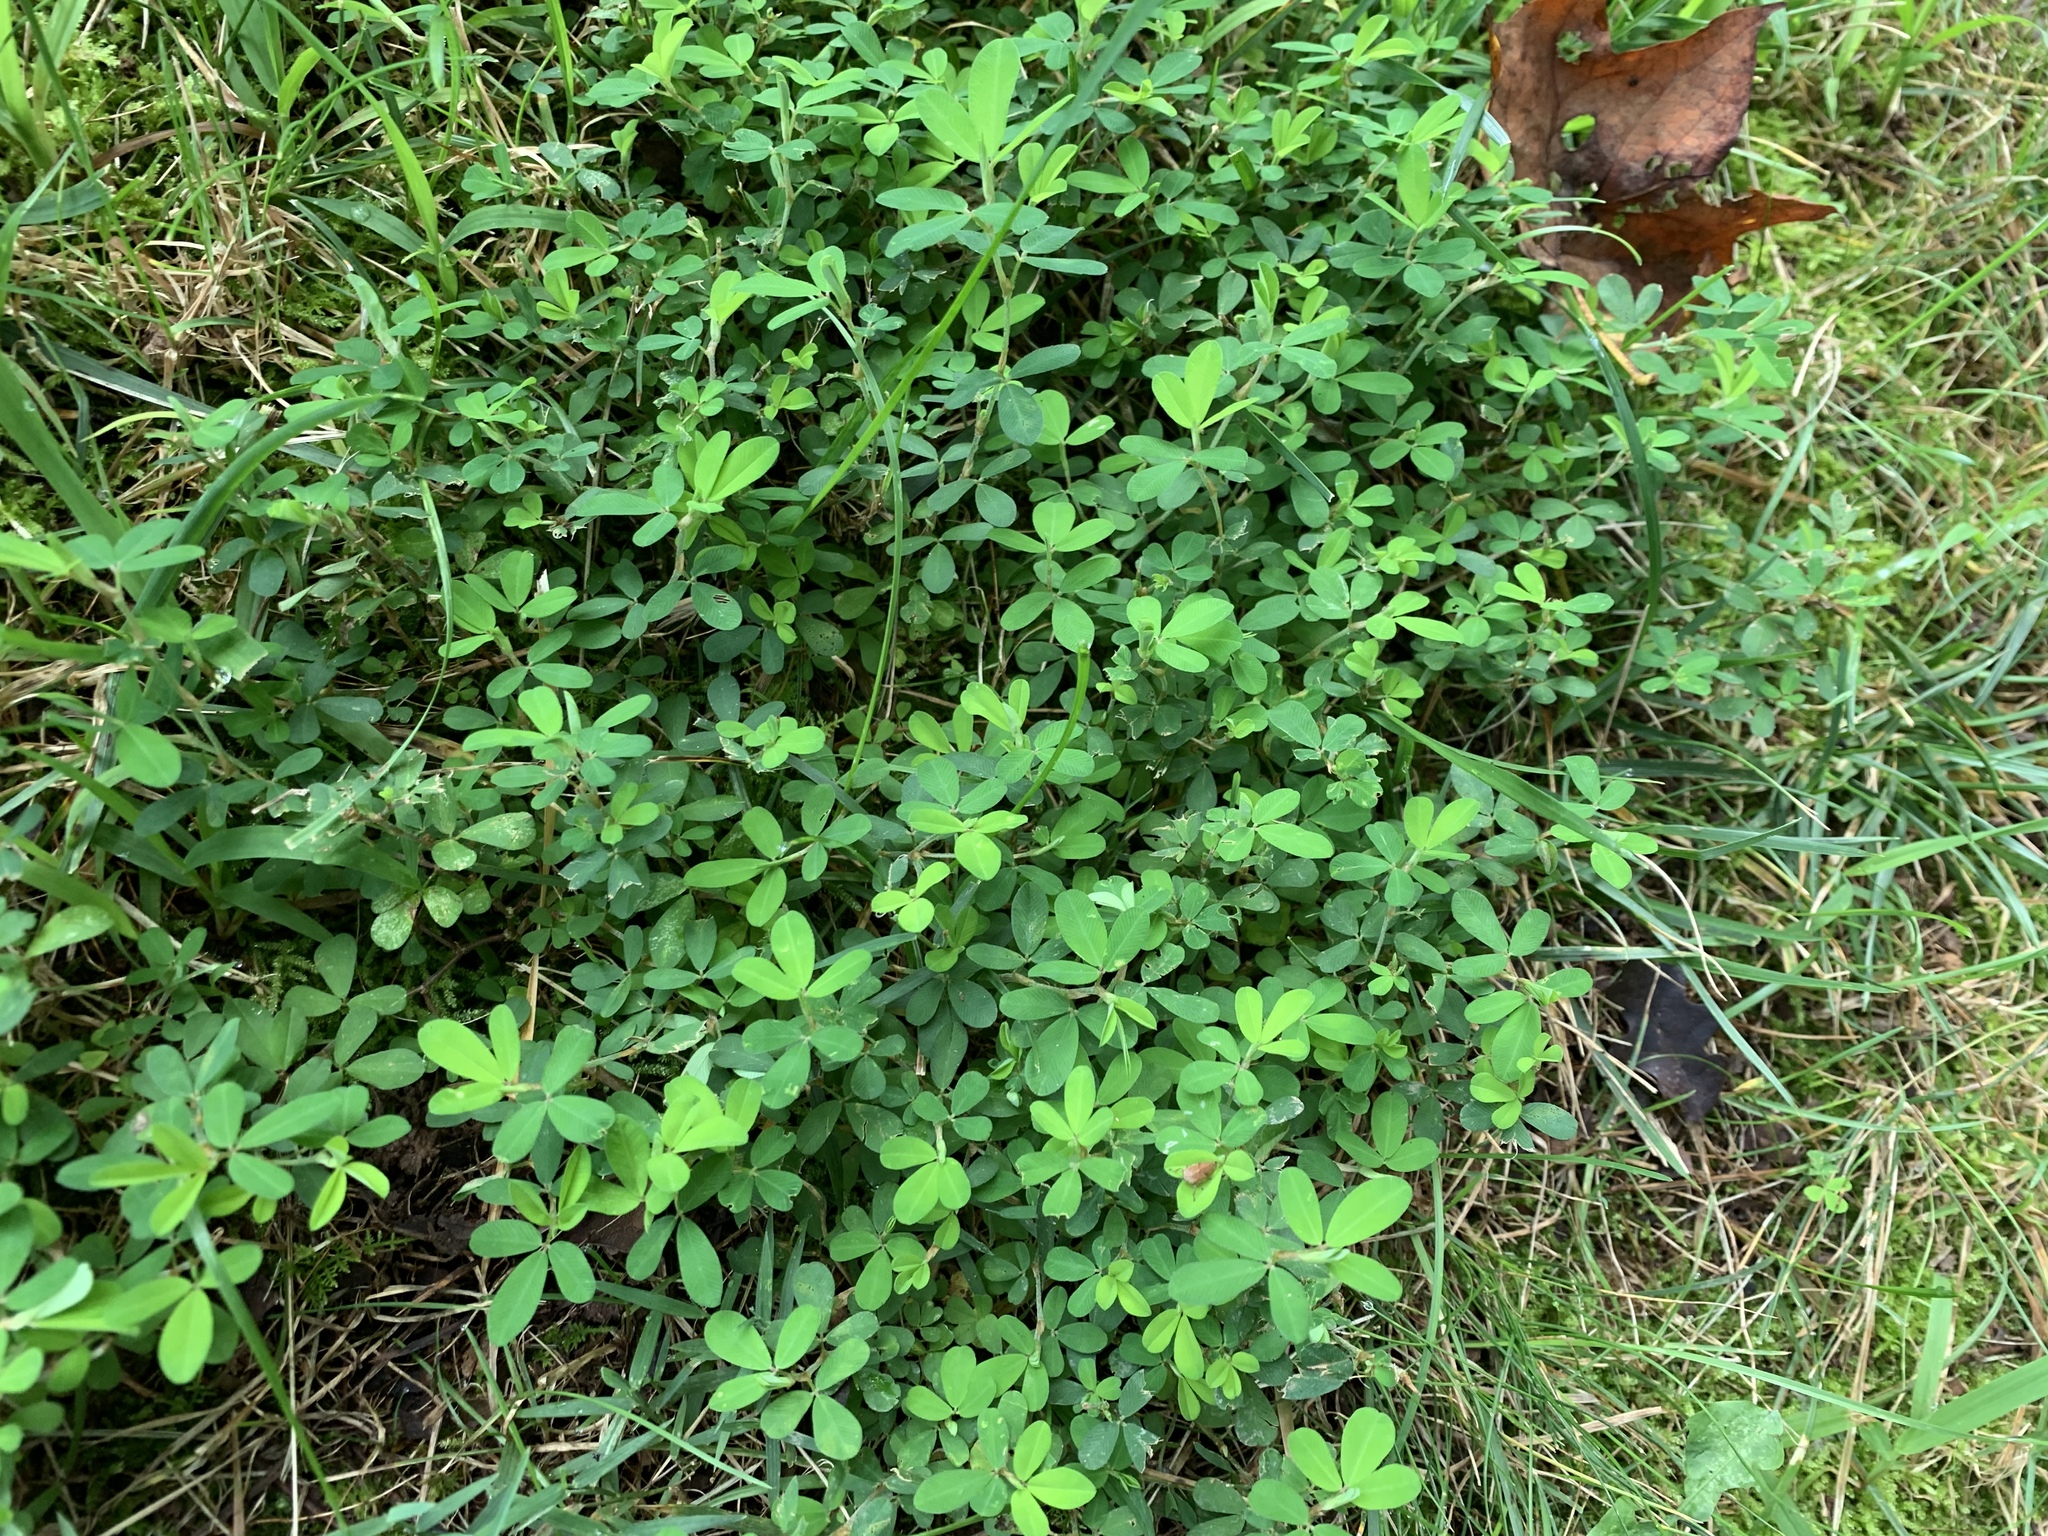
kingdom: Plantae
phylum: Tracheophyta
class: Magnoliopsida
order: Fabales
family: Fabaceae
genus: Kummerowia
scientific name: Kummerowia striata
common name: Japanese clover
